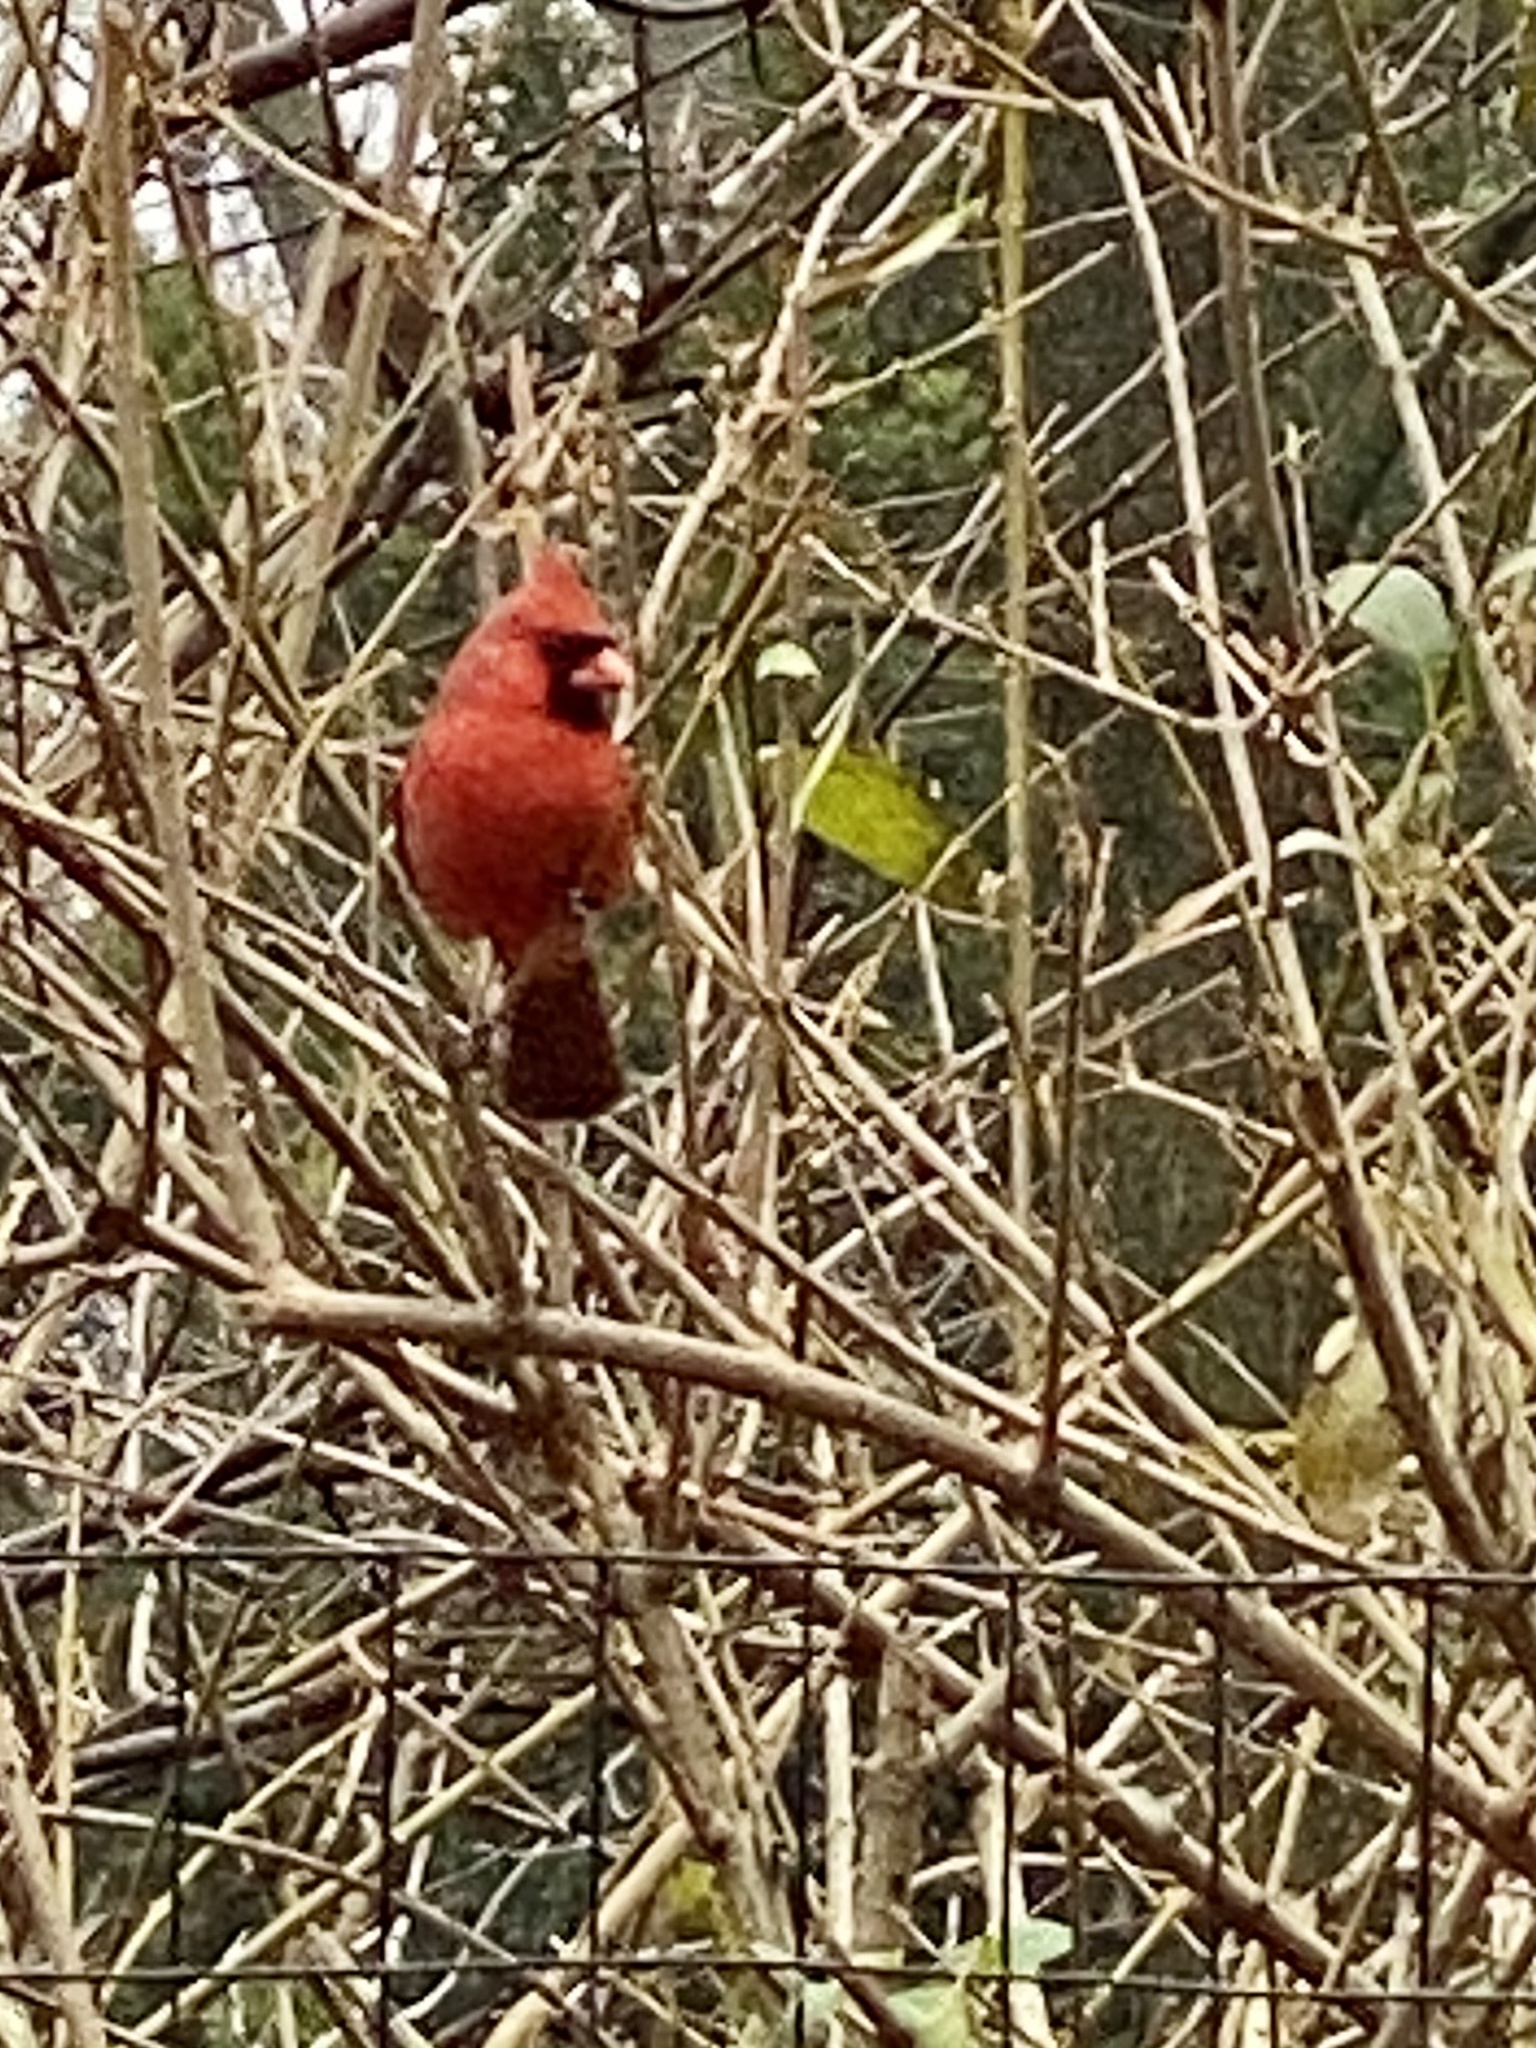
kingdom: Animalia
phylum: Chordata
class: Aves
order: Passeriformes
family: Cardinalidae
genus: Cardinalis
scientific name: Cardinalis cardinalis
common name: Northern cardinal
